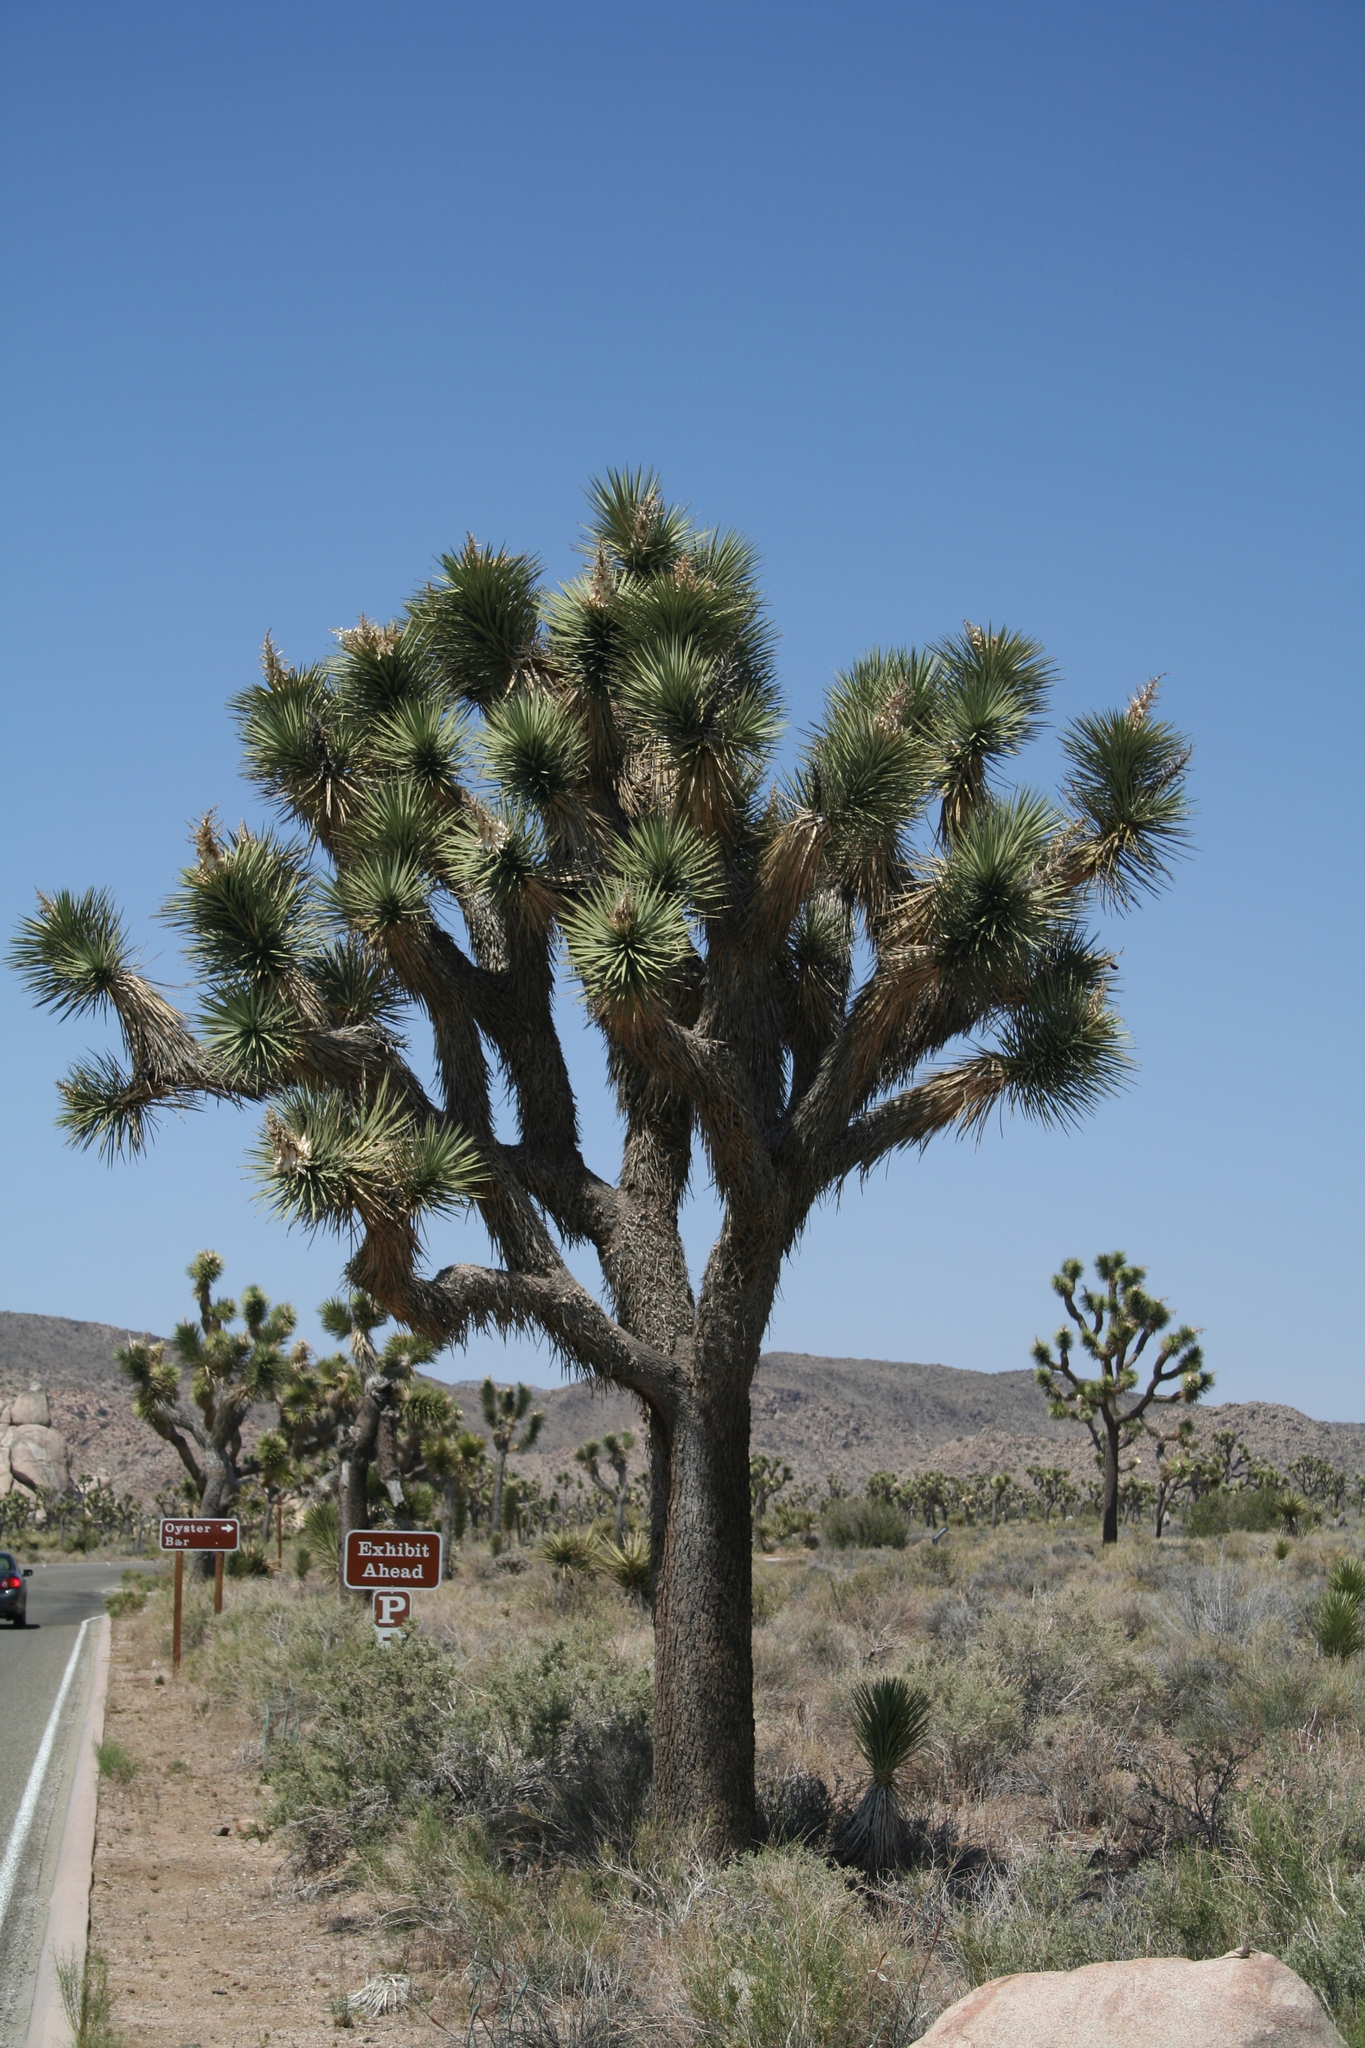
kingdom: Plantae
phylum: Tracheophyta
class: Liliopsida
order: Asparagales
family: Asparagaceae
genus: Yucca
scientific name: Yucca brevifolia
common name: Joshua tree
